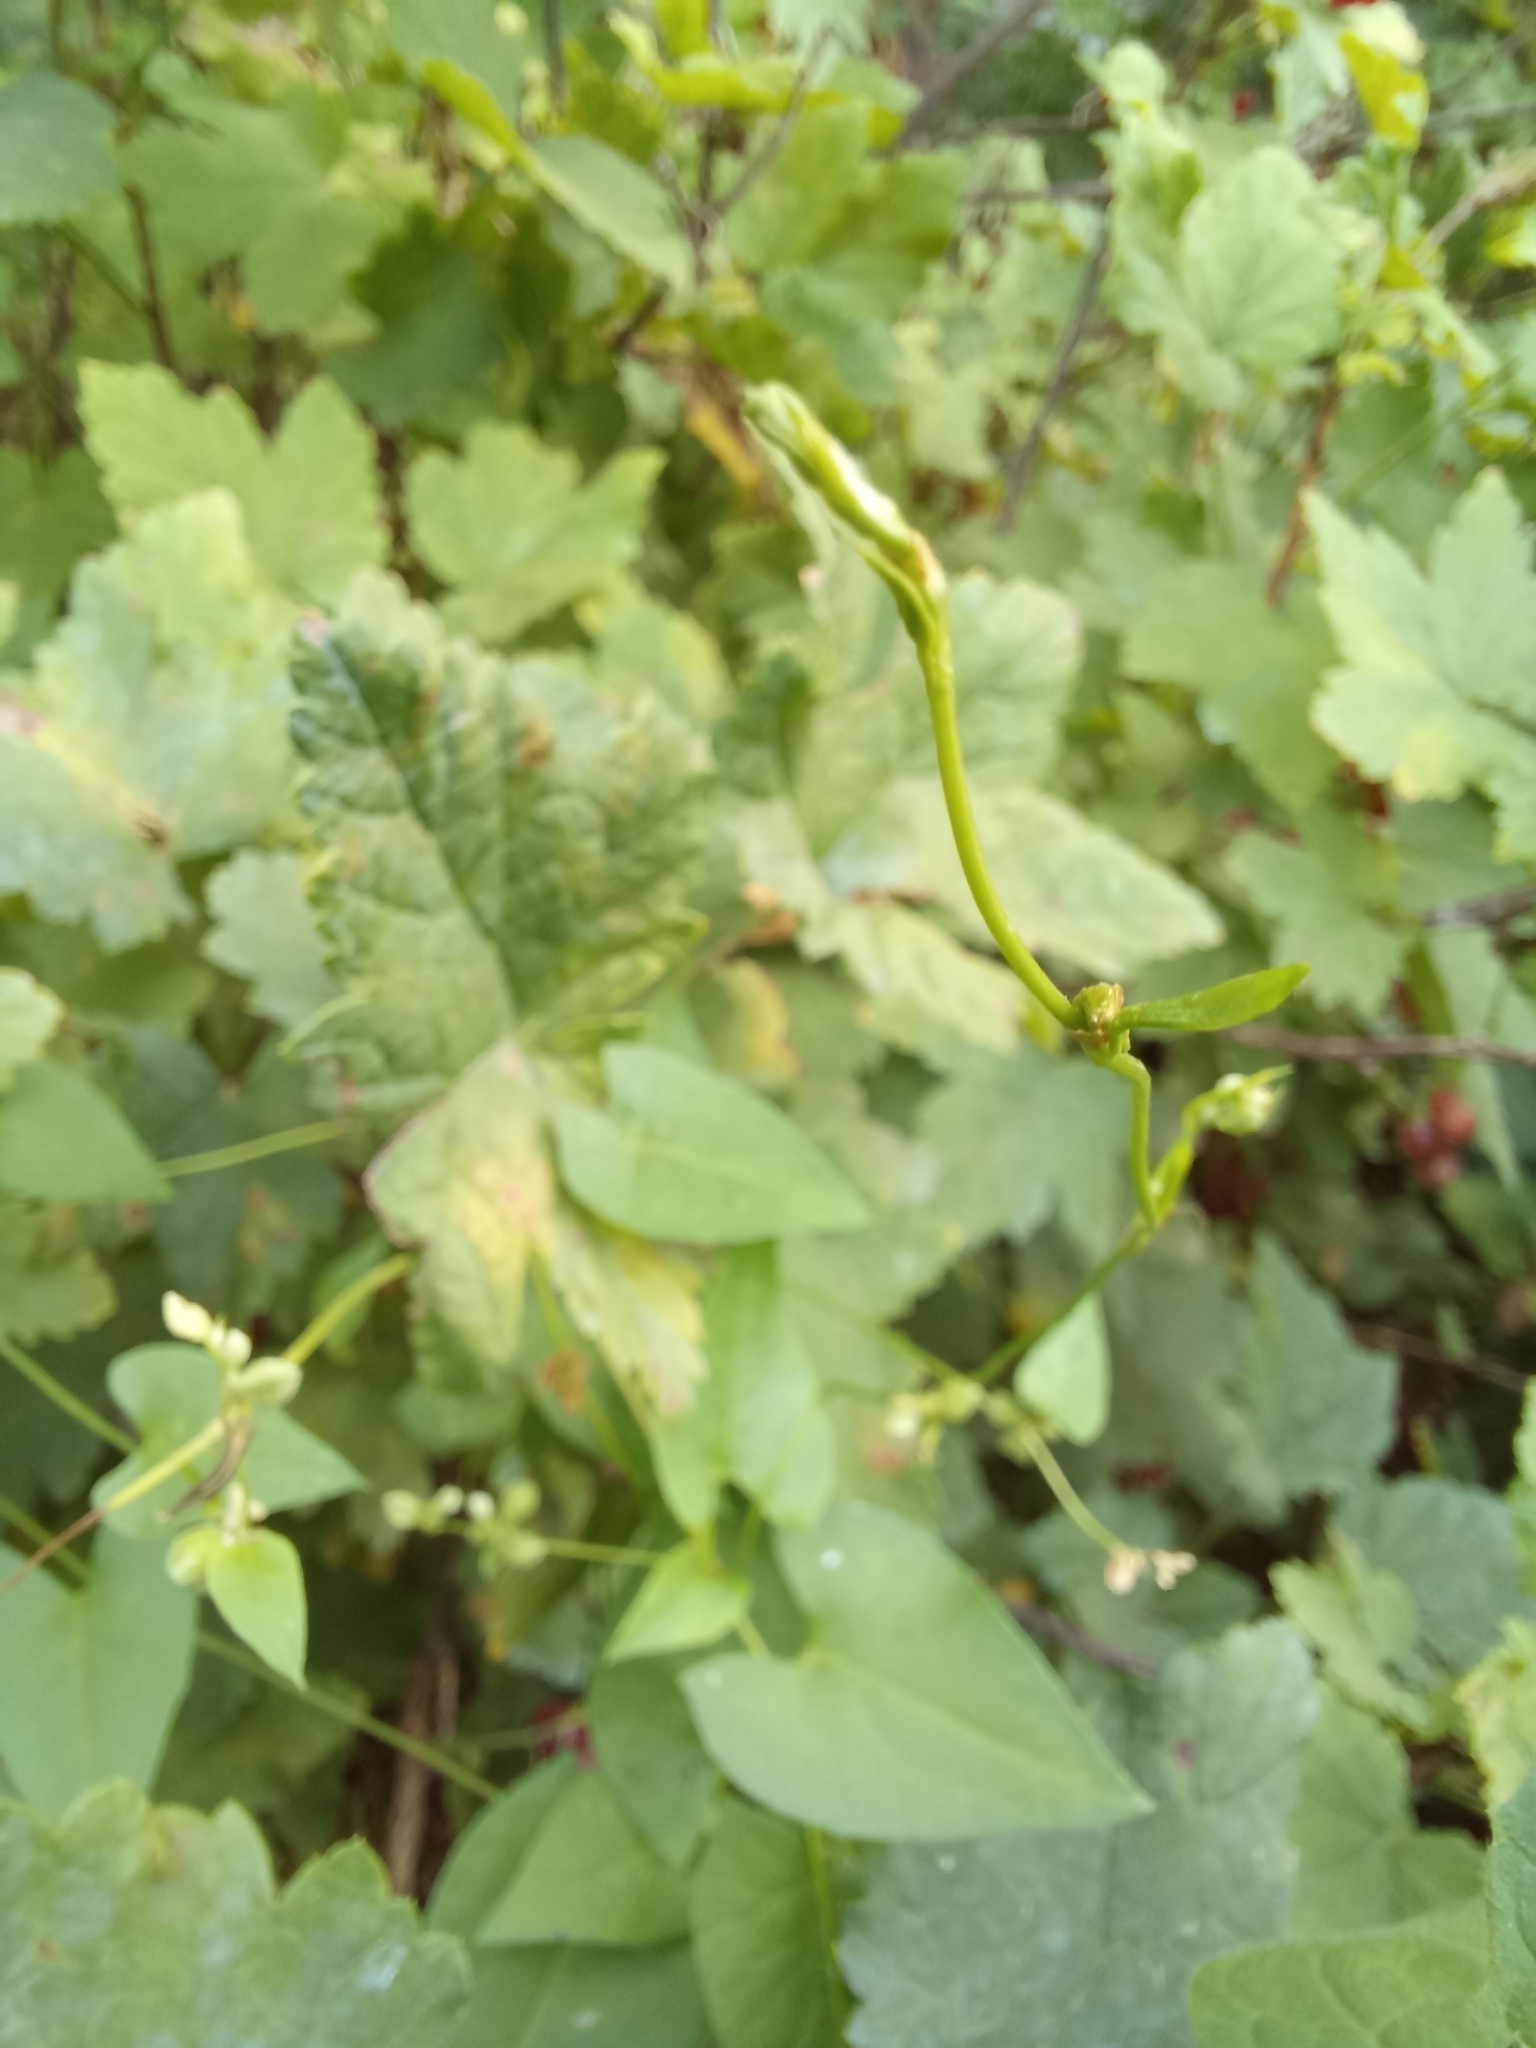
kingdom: Plantae
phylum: Tracheophyta
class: Magnoliopsida
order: Caryophyllales
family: Polygonaceae
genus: Fallopia
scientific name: Fallopia convolvulus
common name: Black bindweed
